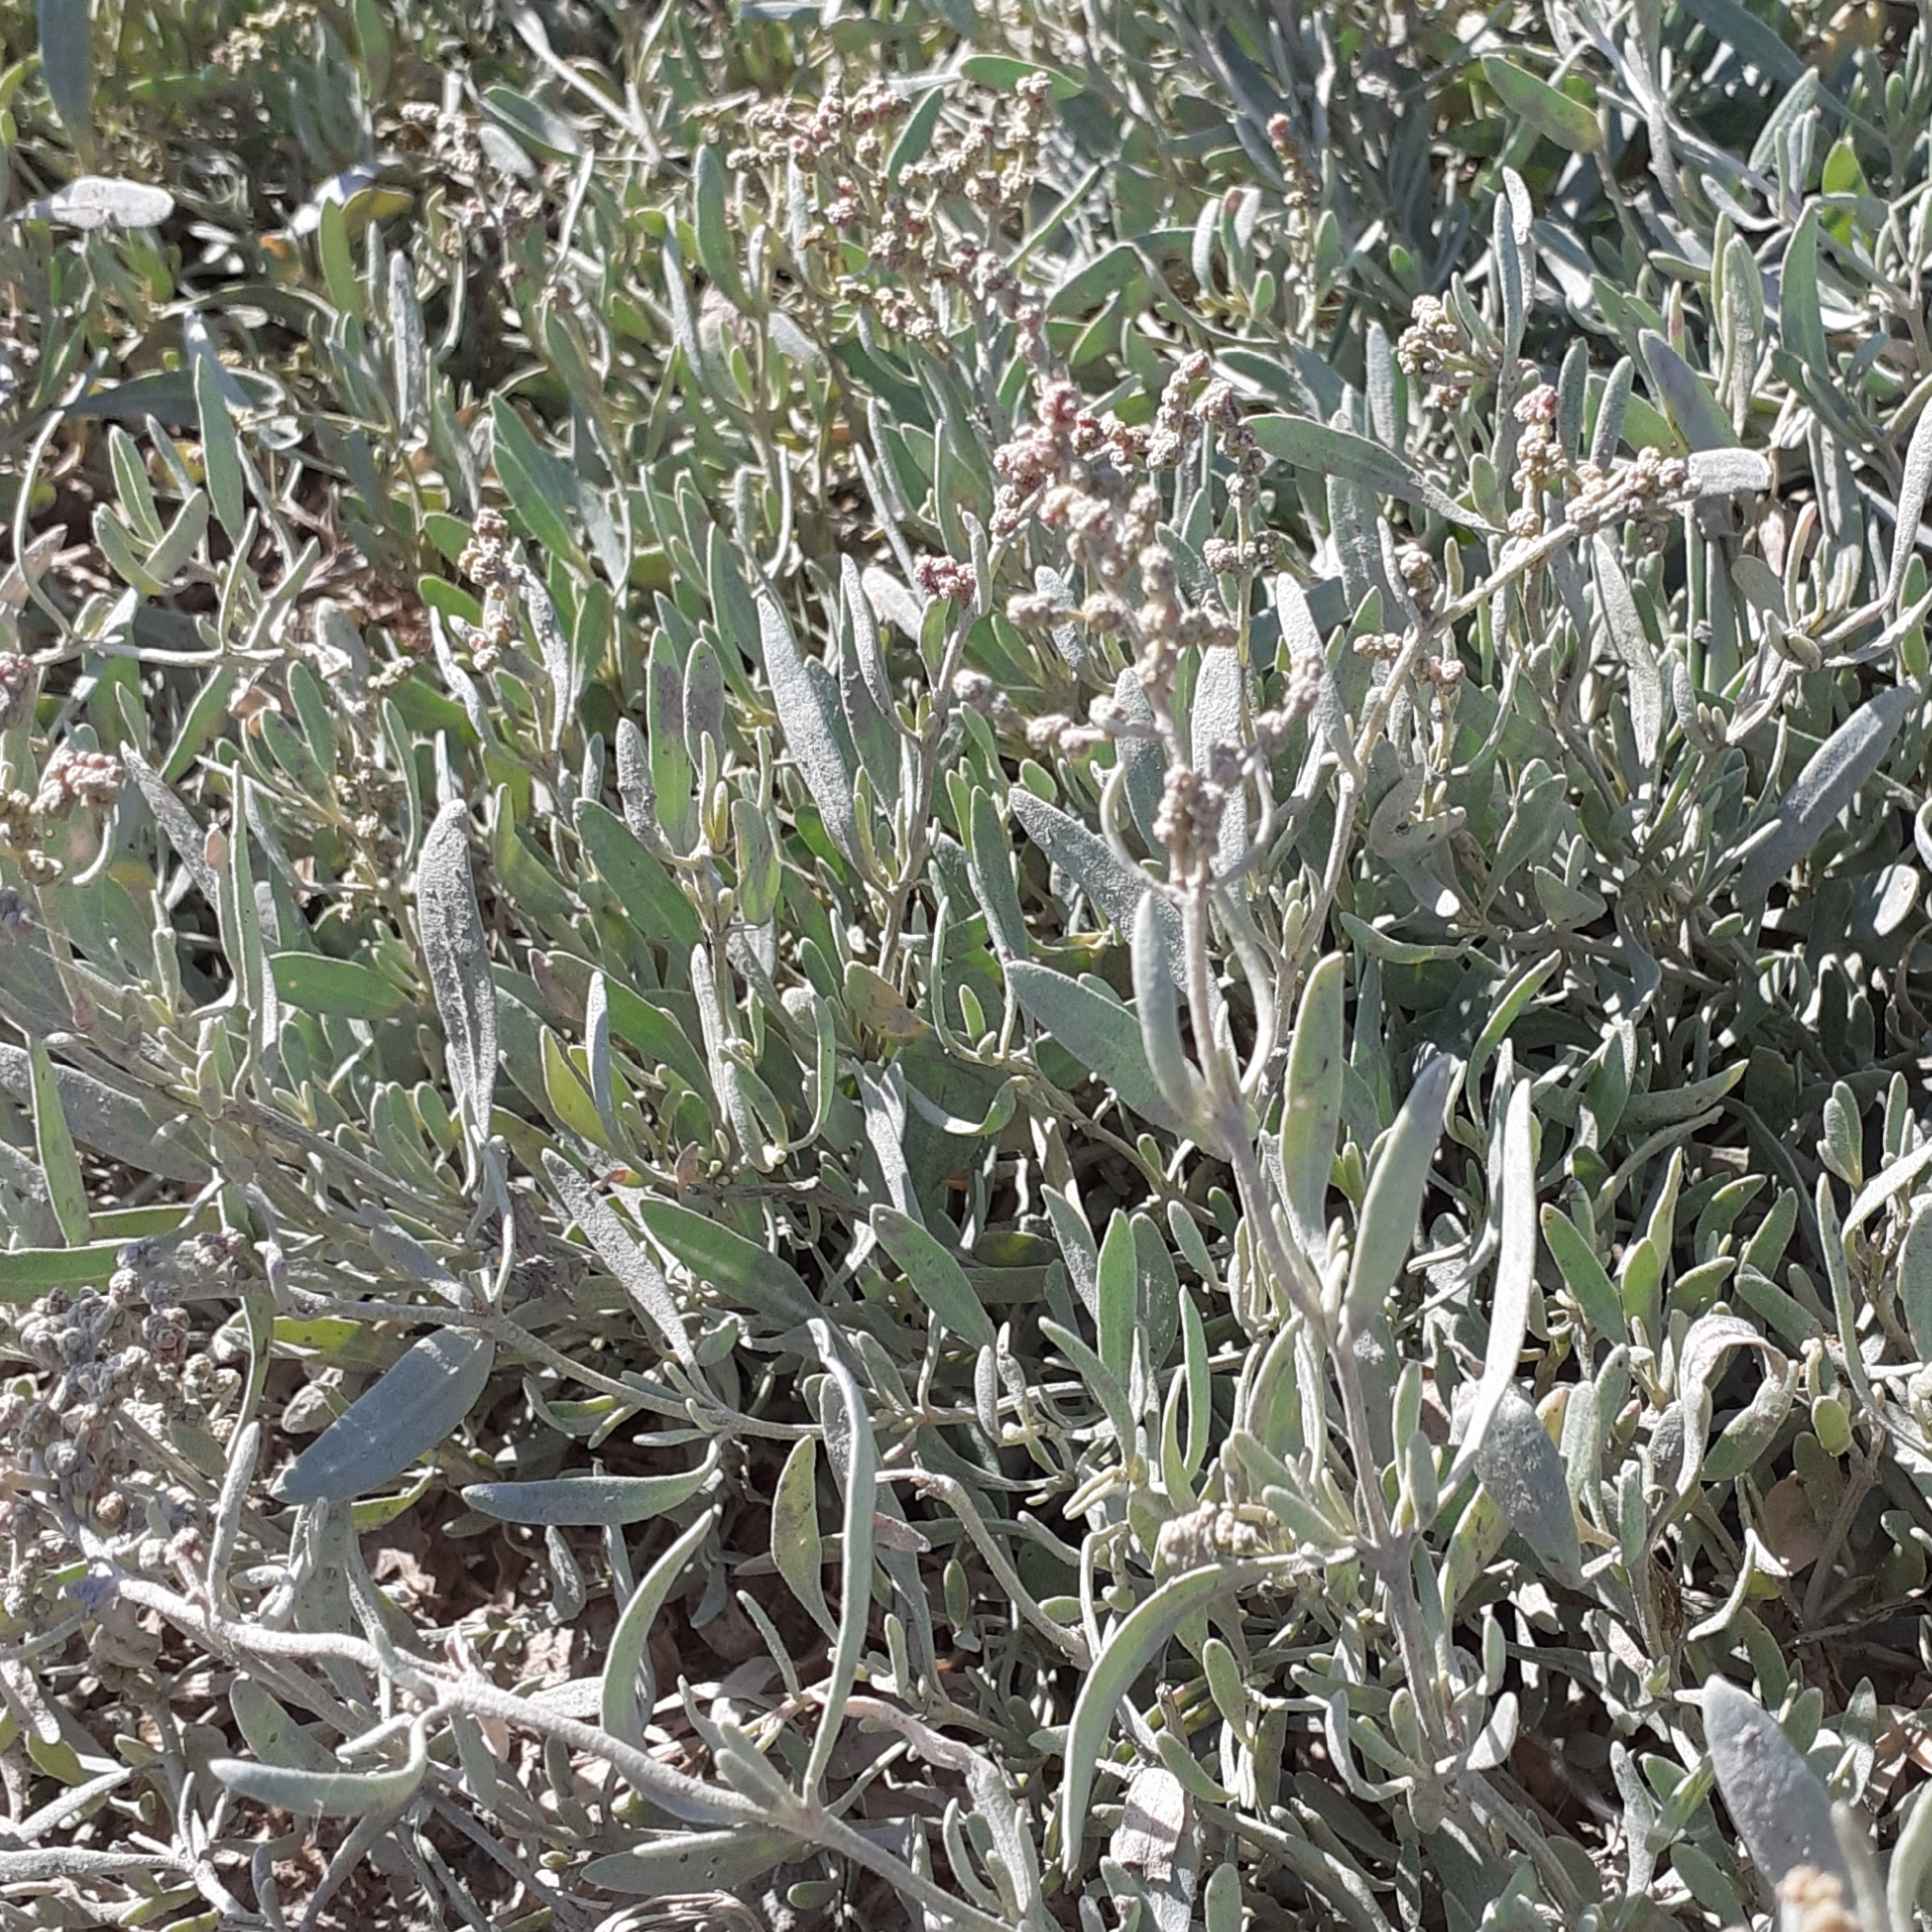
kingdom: Plantae
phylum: Tracheophyta
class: Magnoliopsida
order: Caryophyllales
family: Amaranthaceae
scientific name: Amaranthaceae
